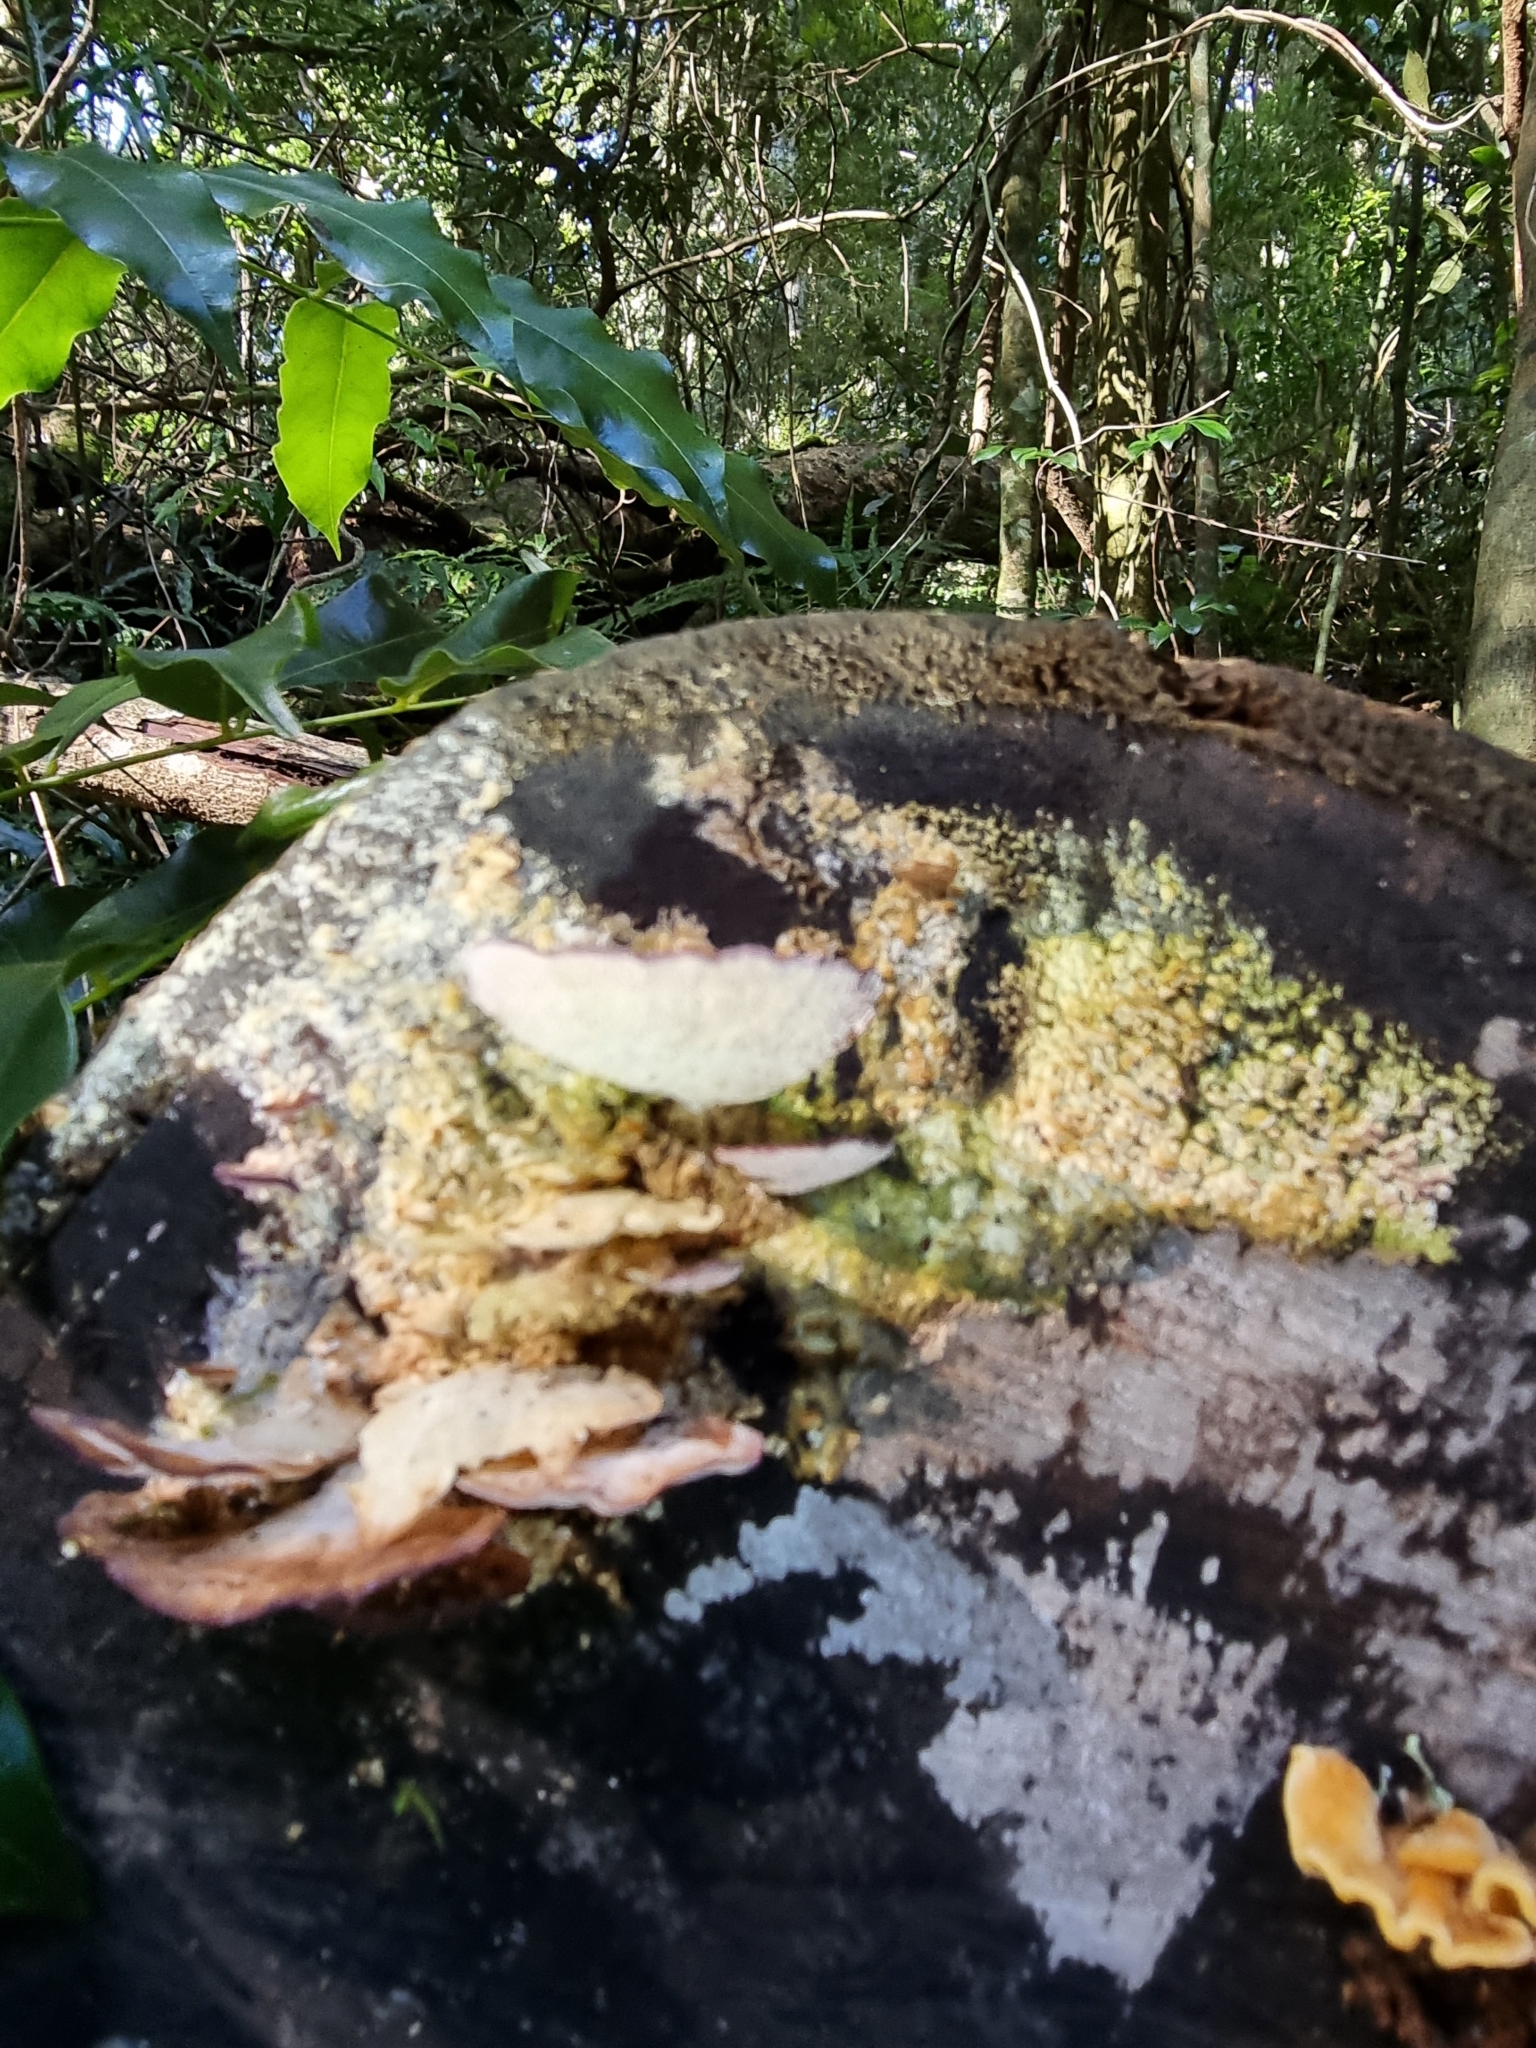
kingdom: Fungi
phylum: Basidiomycota
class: Agaricomycetes
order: Hymenochaetales
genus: Trichaptum
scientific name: Trichaptum biforme
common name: Violet-toothed polypore
